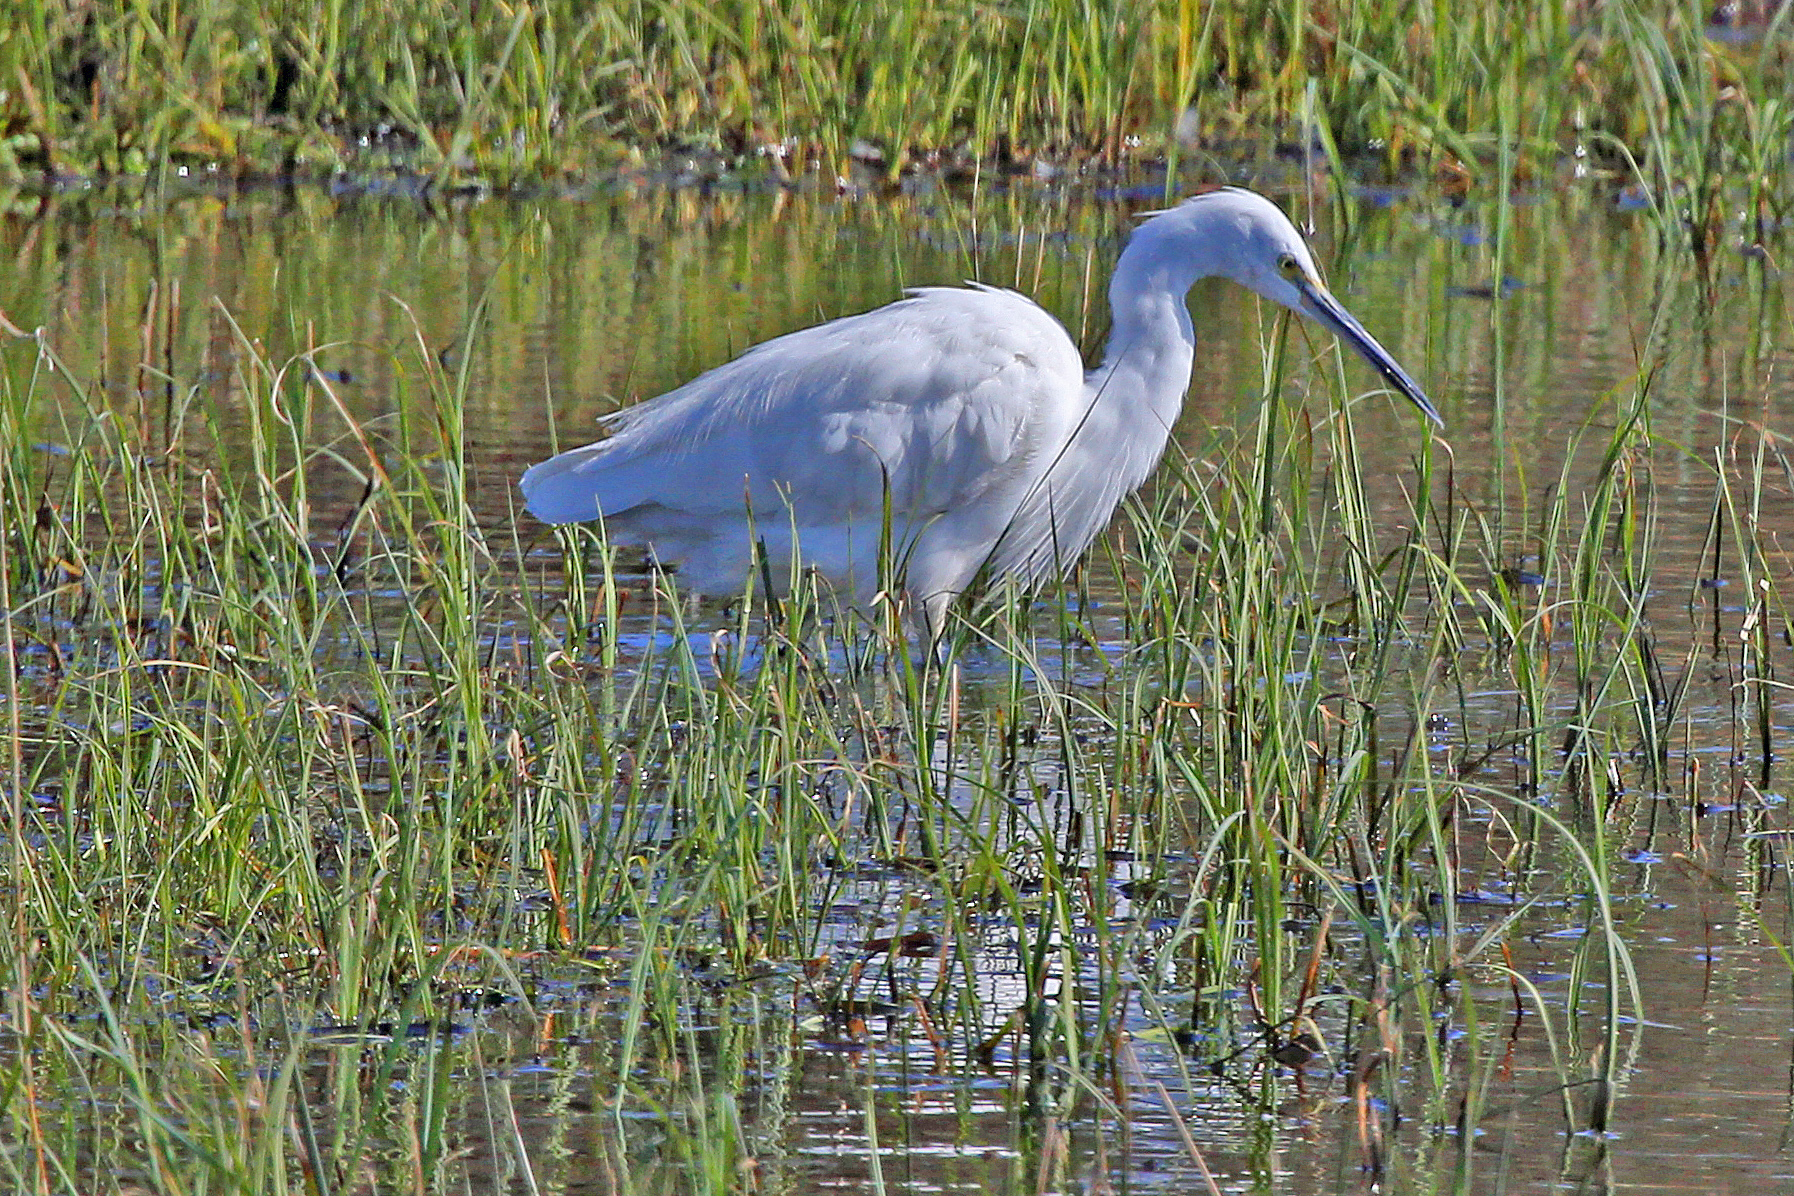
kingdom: Animalia
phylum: Chordata
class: Aves
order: Pelecaniformes
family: Ardeidae
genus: Egretta
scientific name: Egretta garzetta
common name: Little egret
